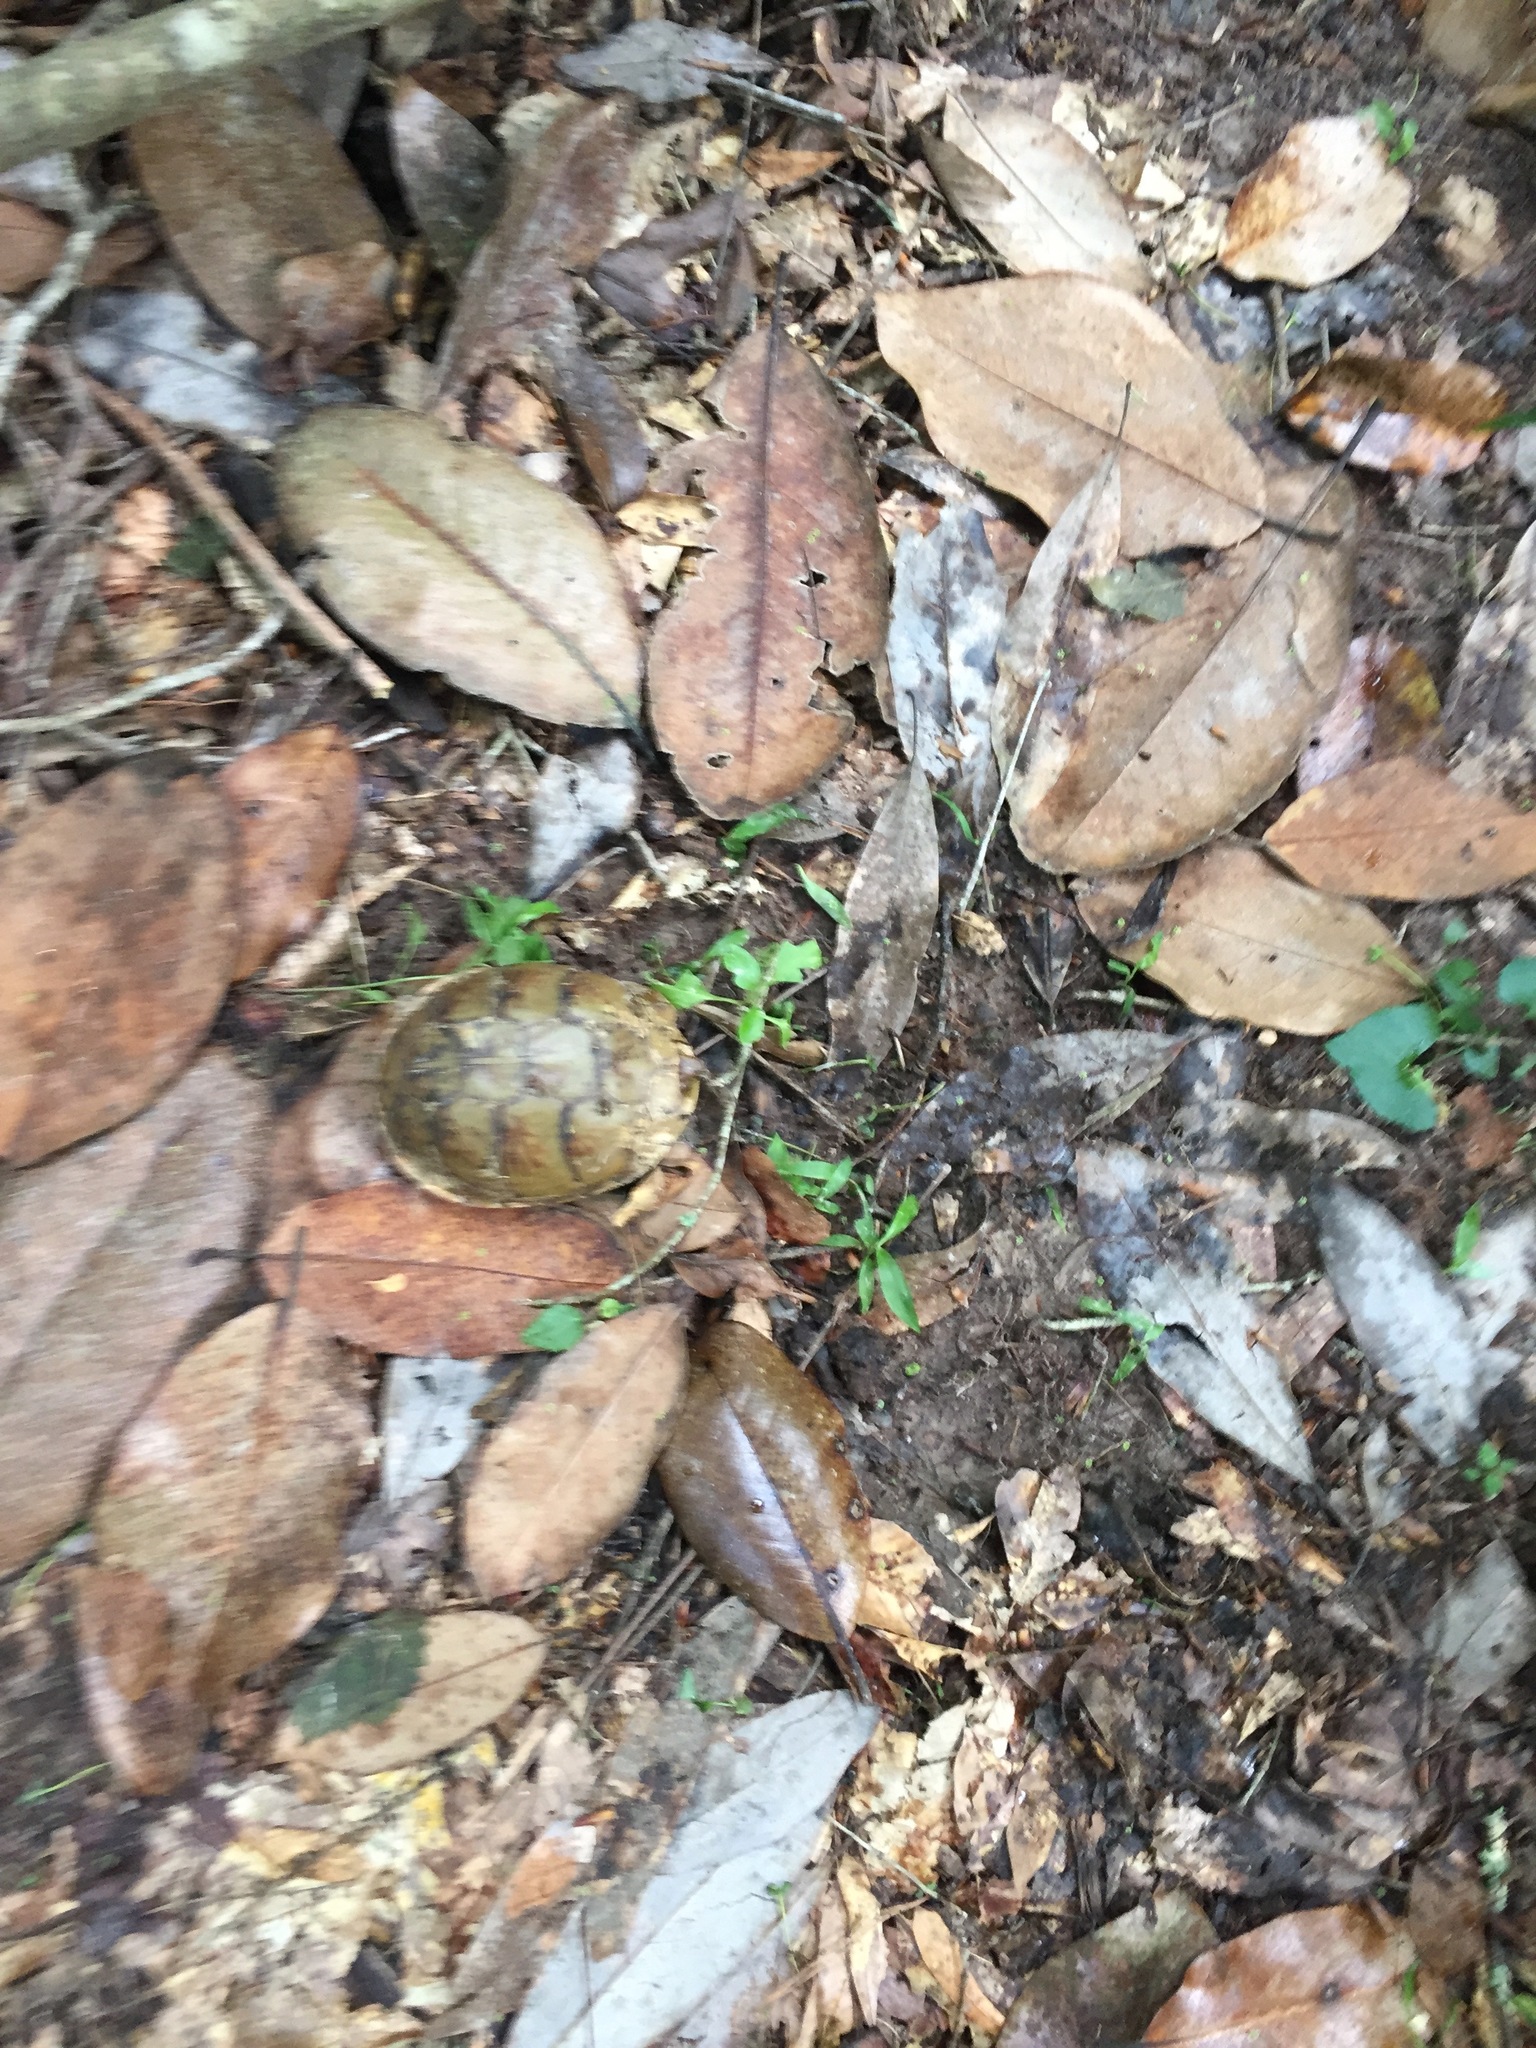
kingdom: Animalia
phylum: Chordata
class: Testudines
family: Emydidae
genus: Terrapene
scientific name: Terrapene carolina
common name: Common box turtle
